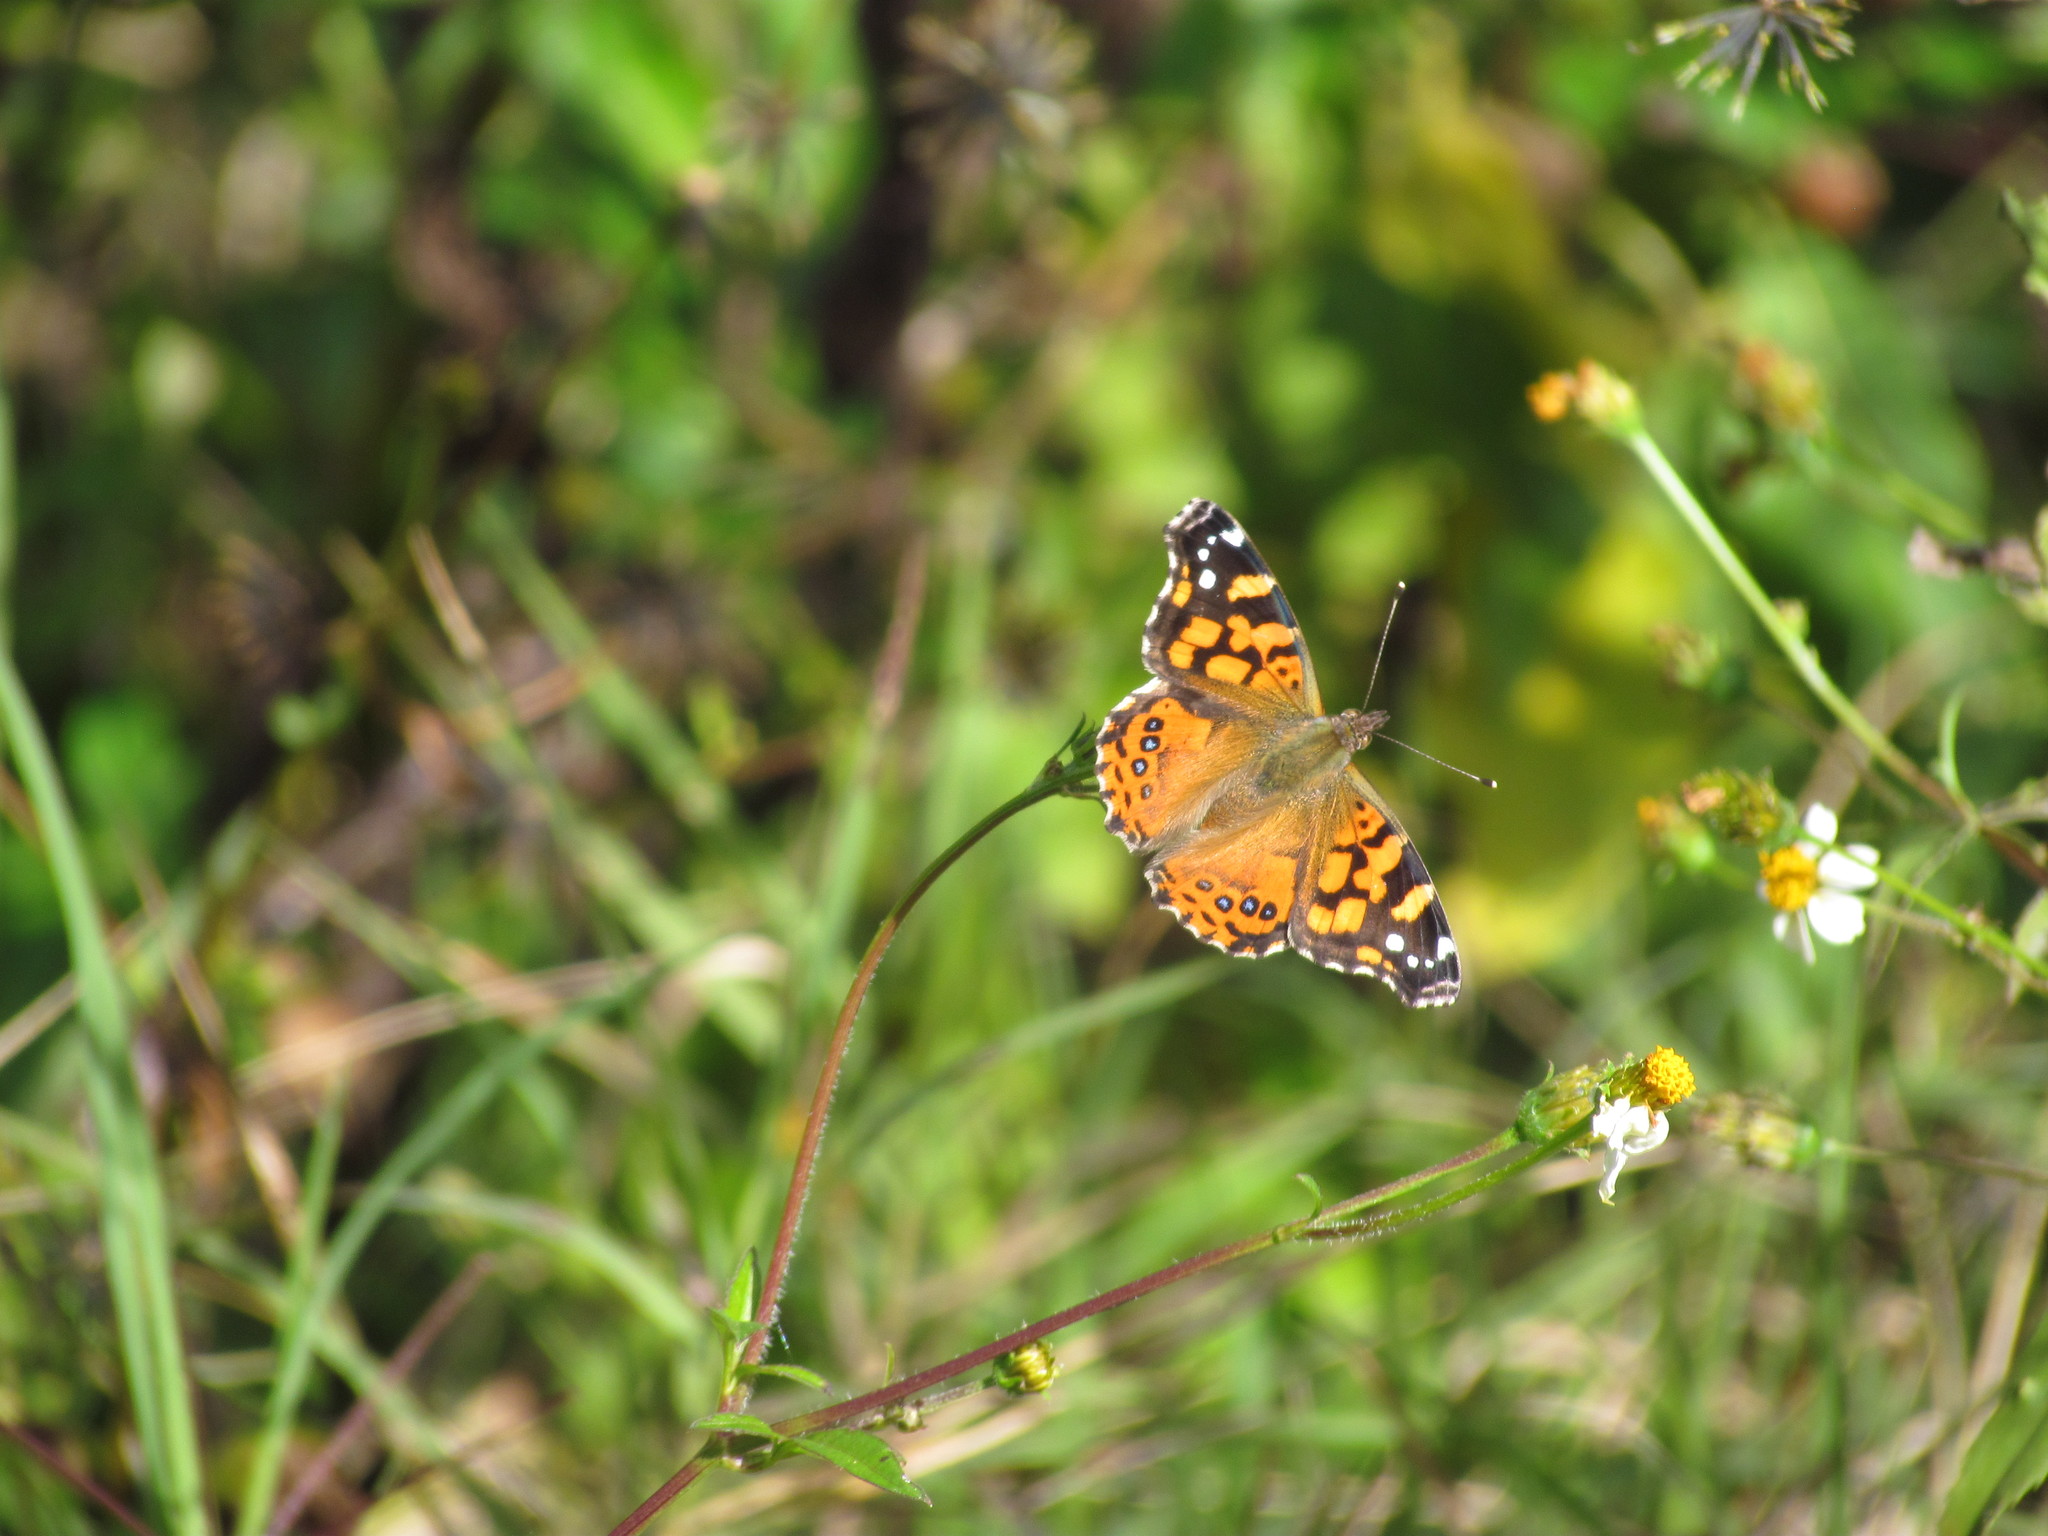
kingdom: Animalia
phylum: Arthropoda
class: Insecta
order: Lepidoptera
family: Nymphalidae
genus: Vanessa
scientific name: Vanessa carye
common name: Subtropical lady
